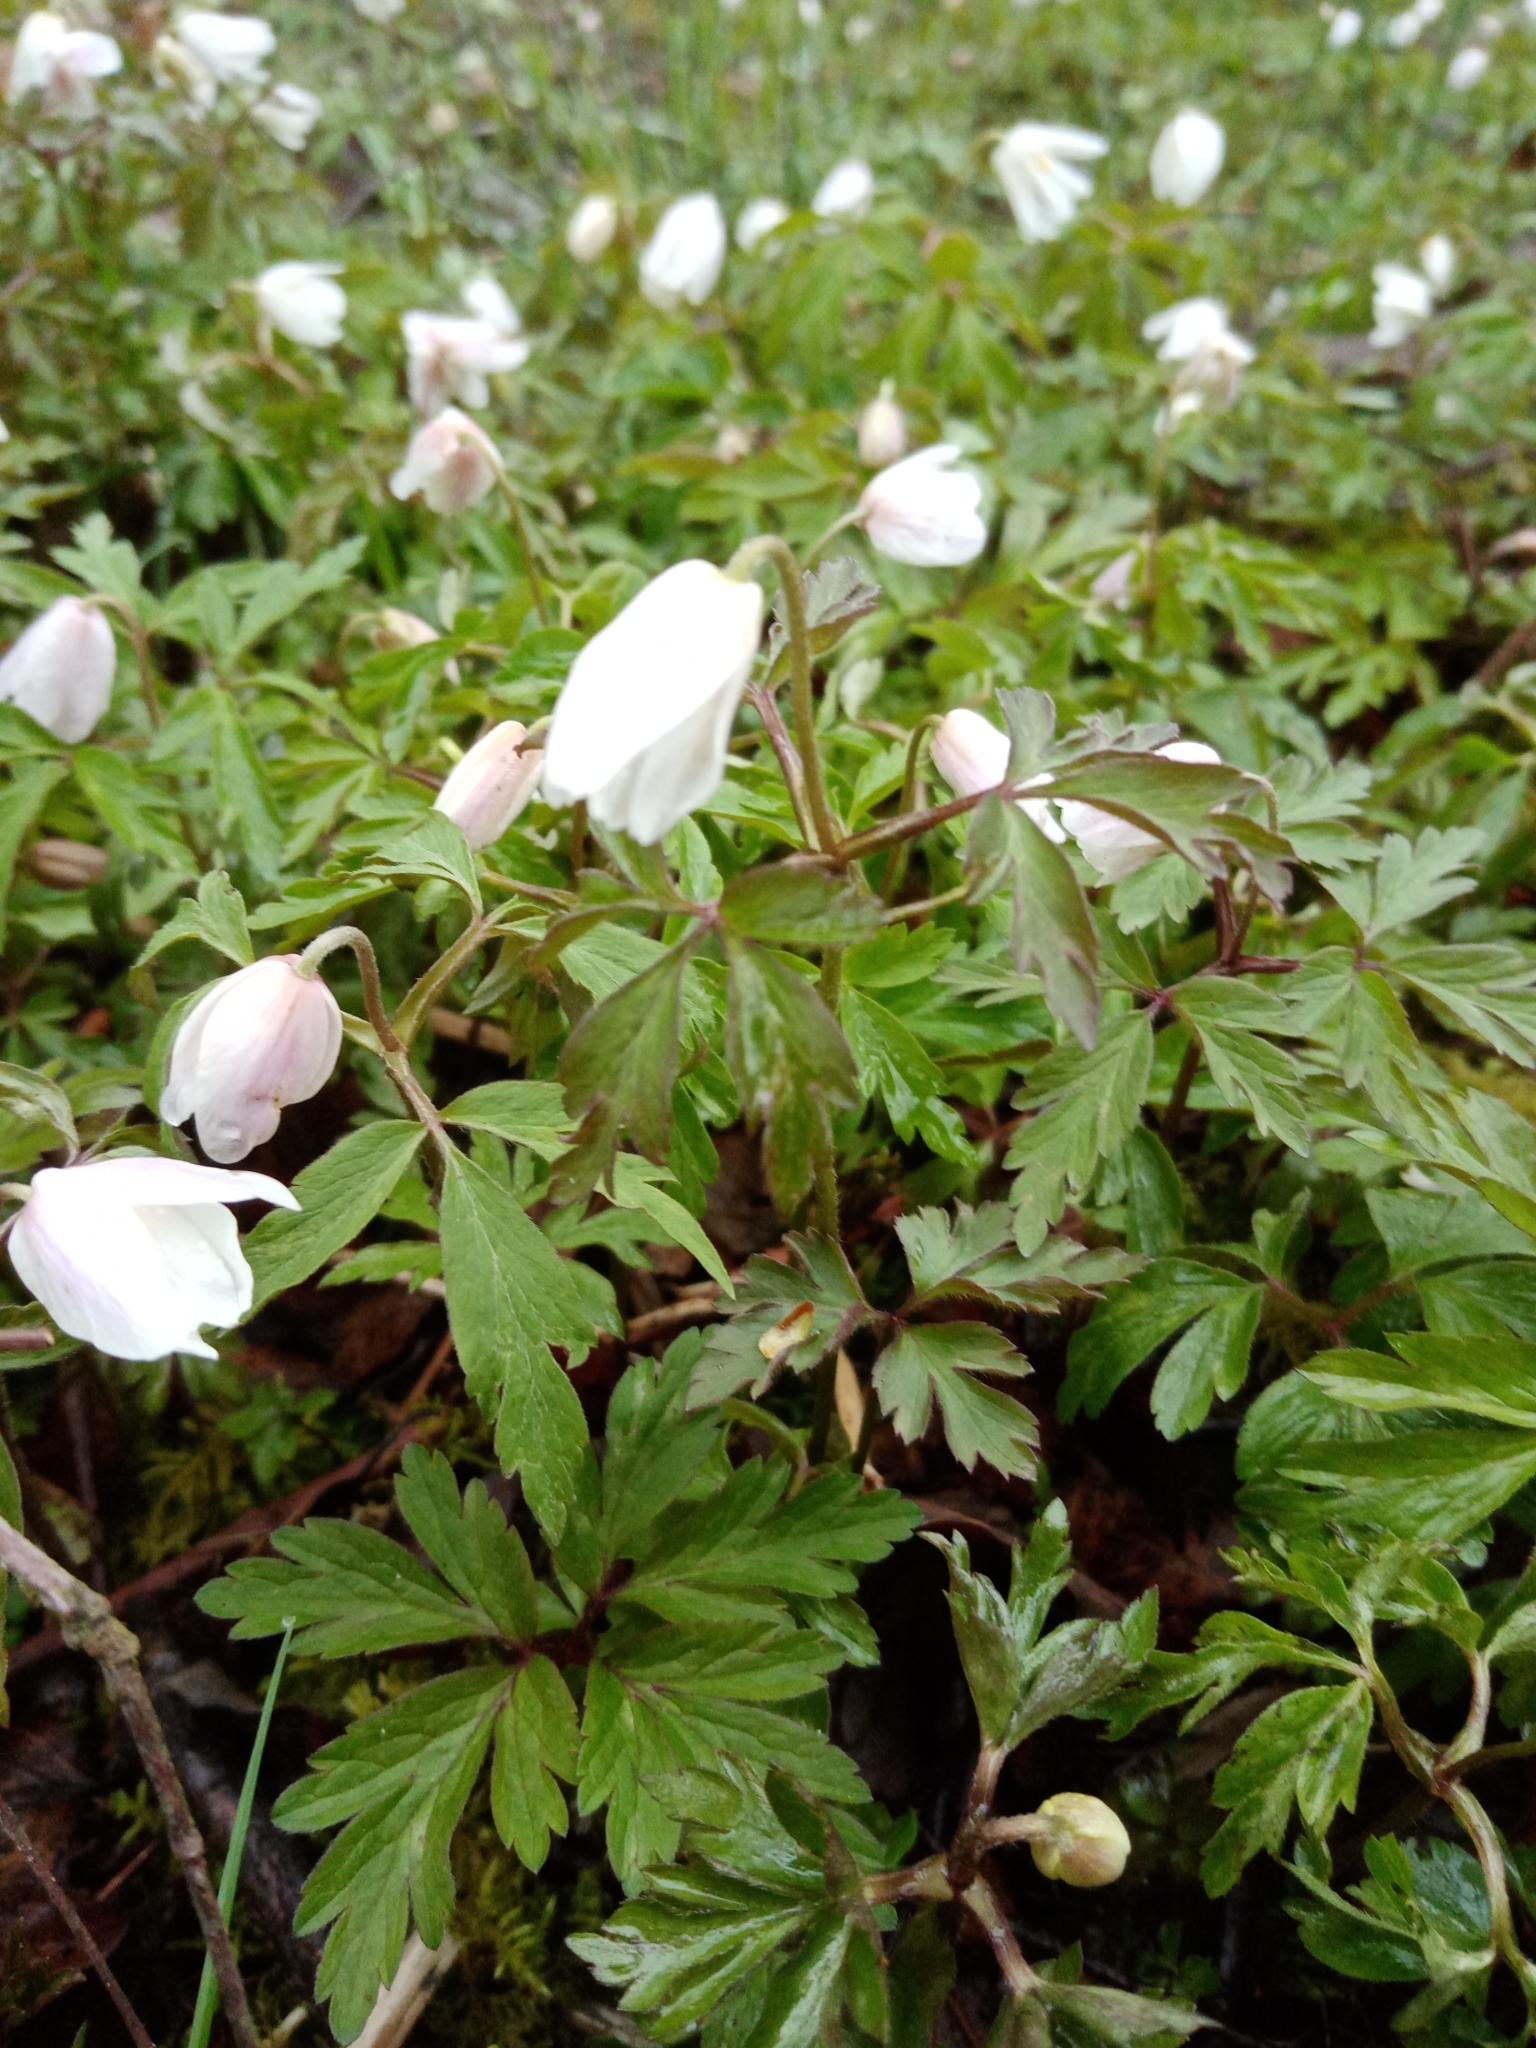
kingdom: Plantae
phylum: Tracheophyta
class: Magnoliopsida
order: Ranunculales
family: Ranunculaceae
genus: Anemone
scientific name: Anemone nemorosa
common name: Wood anemone
